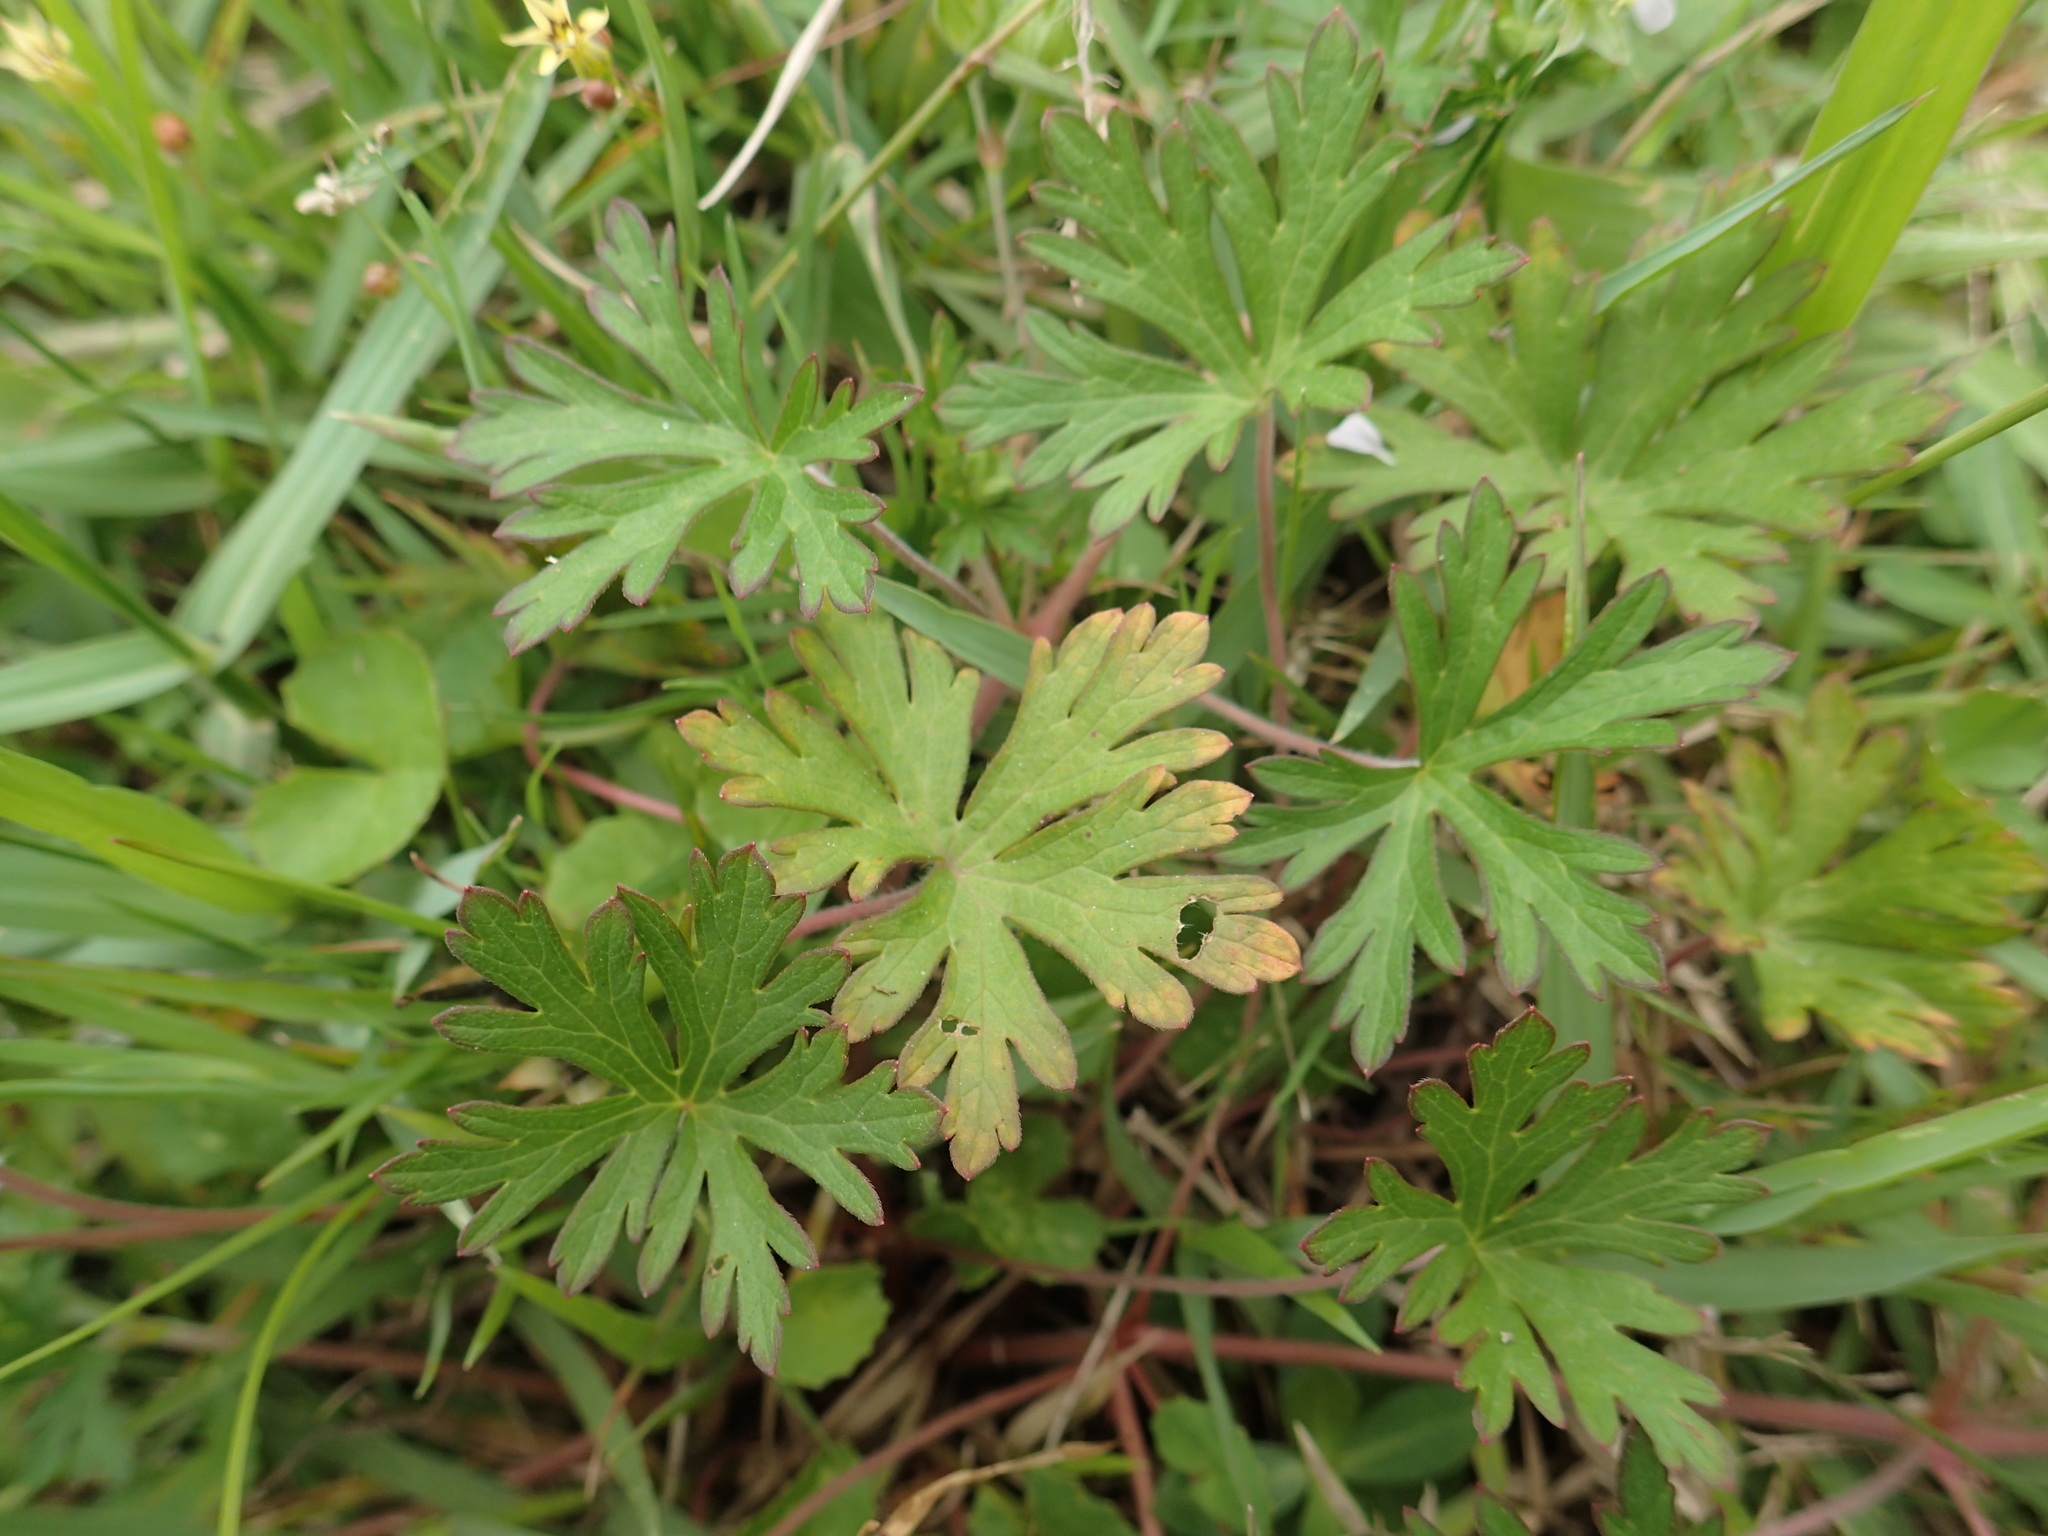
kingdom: Plantae
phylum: Tracheophyta
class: Magnoliopsida
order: Geraniales
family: Geraniaceae
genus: Geranium
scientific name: Geranium carolinianum
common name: Carolina crane's-bill
